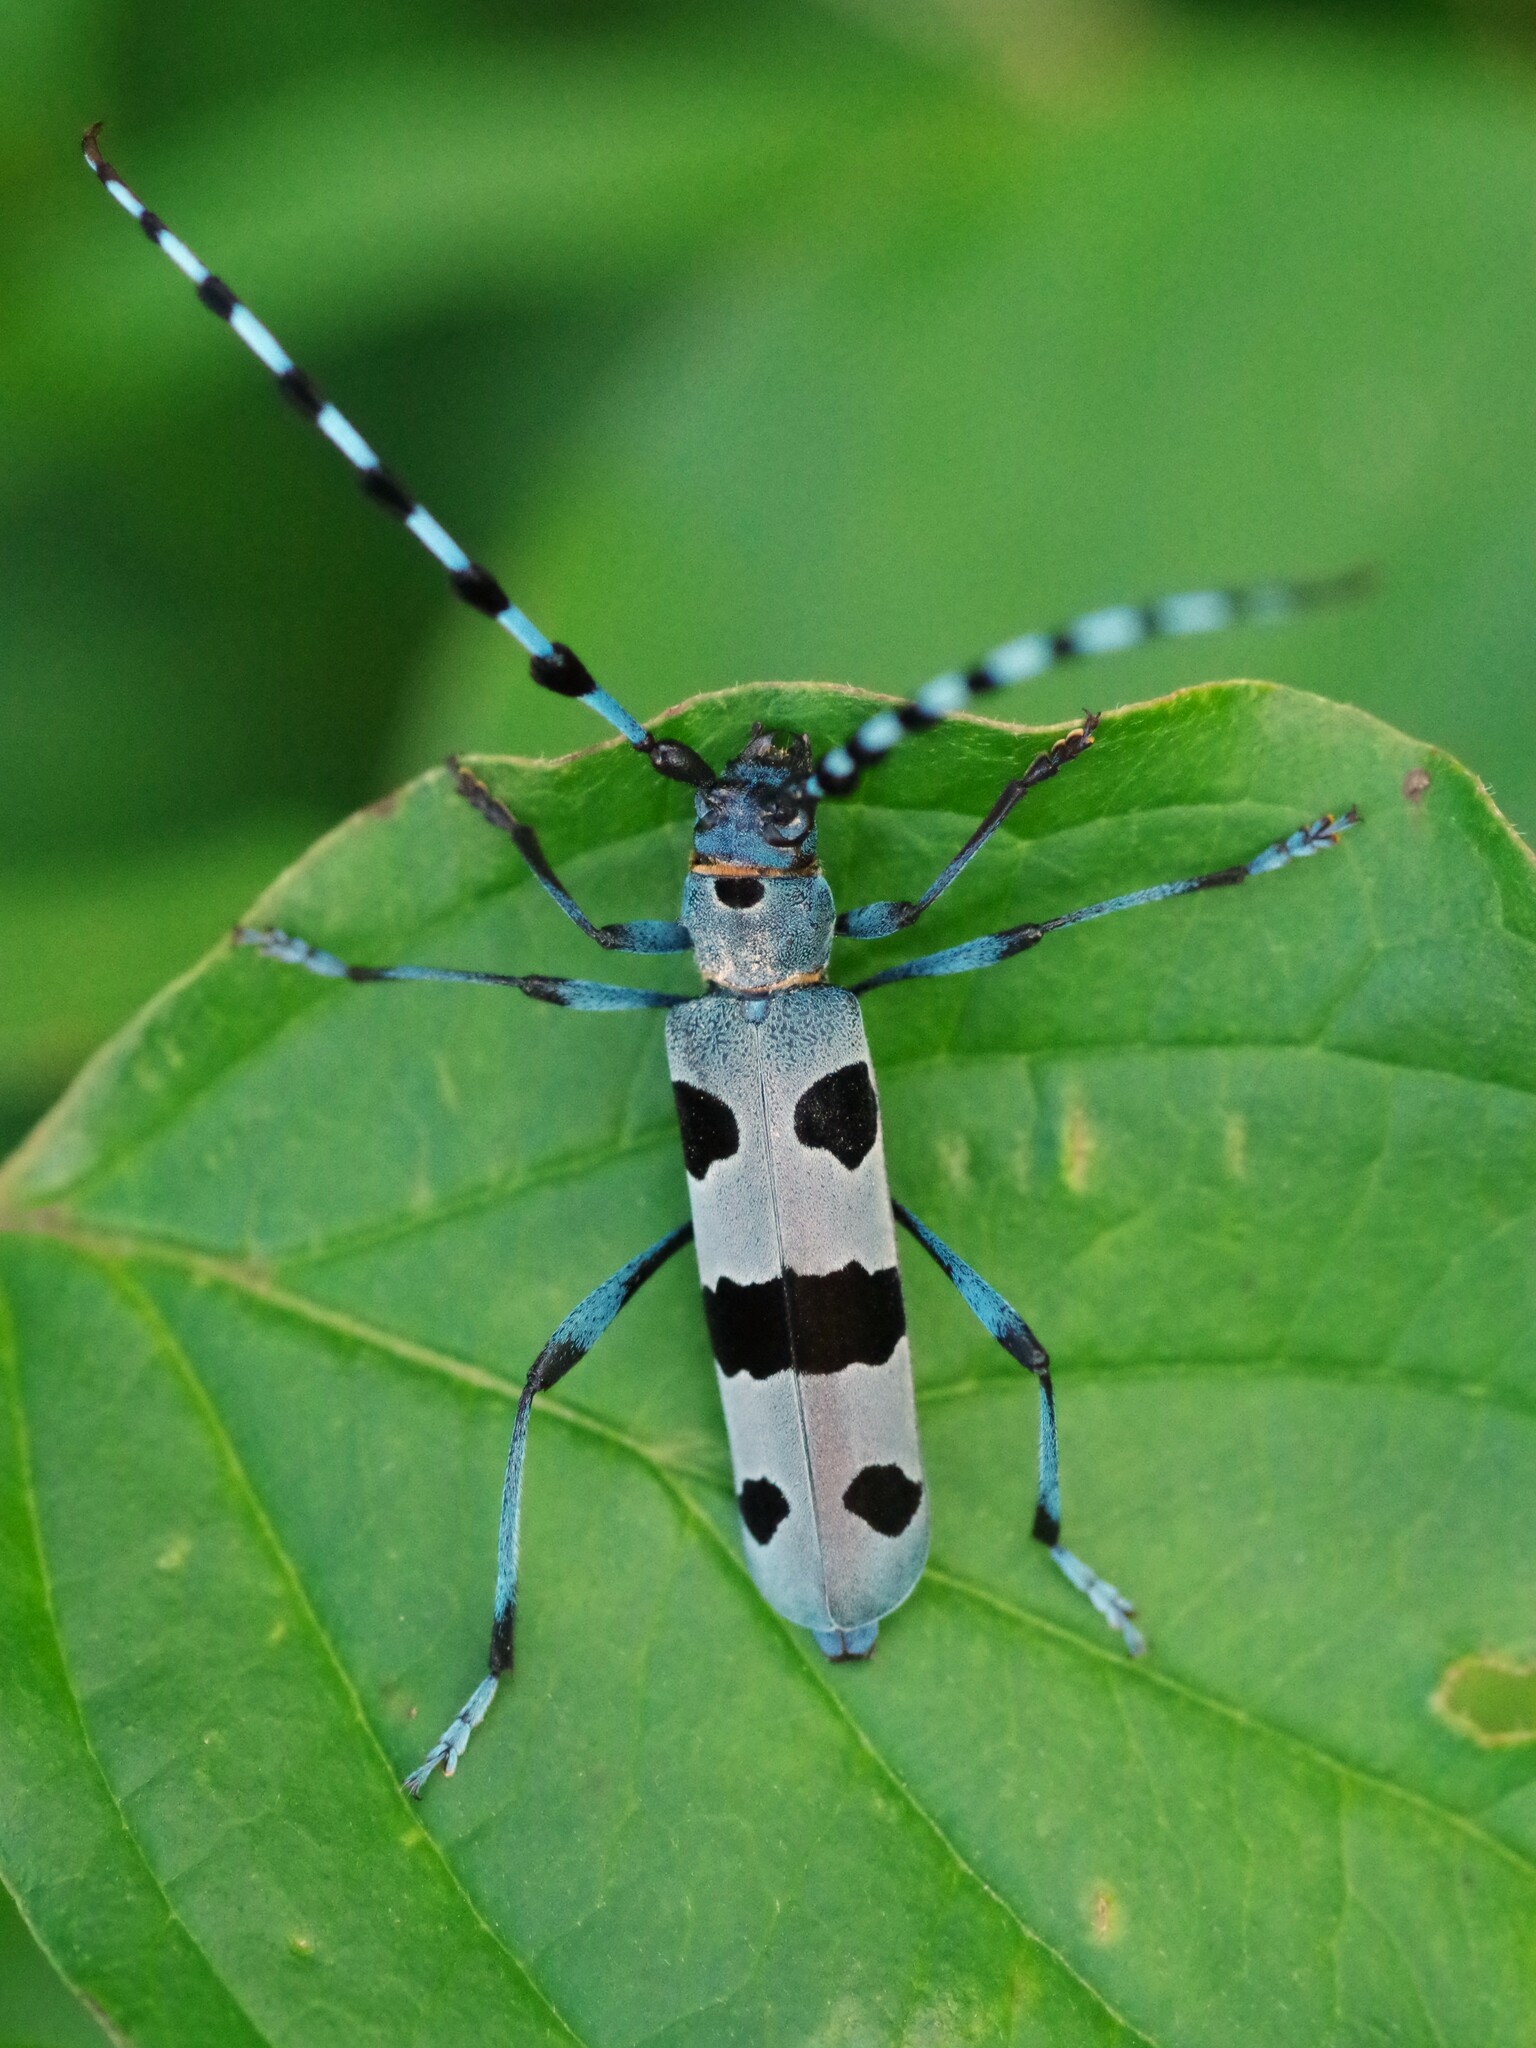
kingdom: Animalia
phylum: Arthropoda
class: Insecta
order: Coleoptera
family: Cerambycidae
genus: Rosalia
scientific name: Rosalia alpina
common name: Rosalia longicorn
